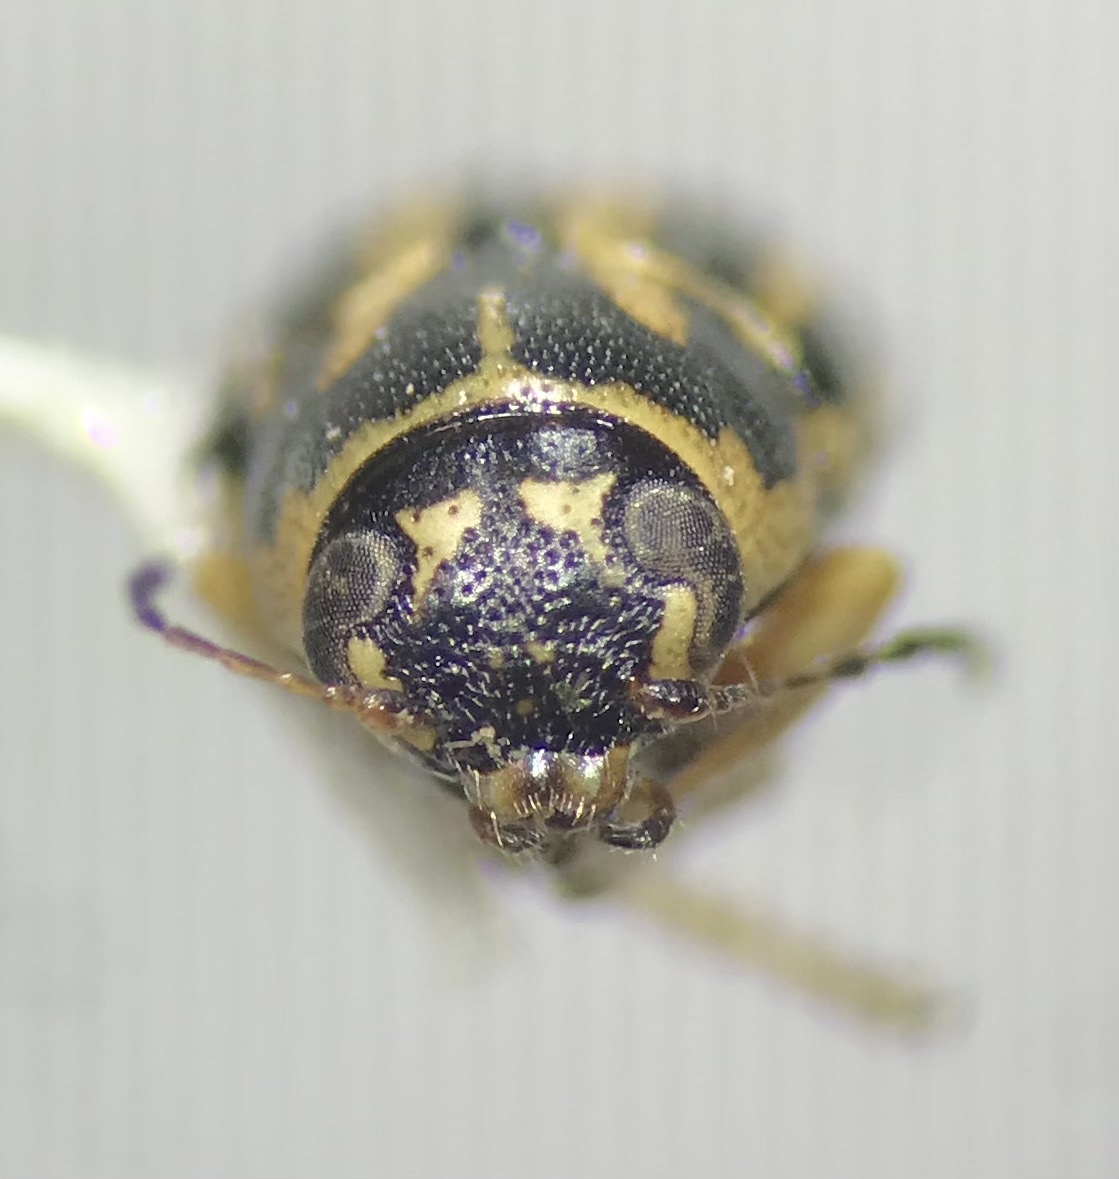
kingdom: Animalia
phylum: Arthropoda
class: Insecta
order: Coleoptera
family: Chrysomelidae
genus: Pachybrachis
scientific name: Pachybrachis othonus
